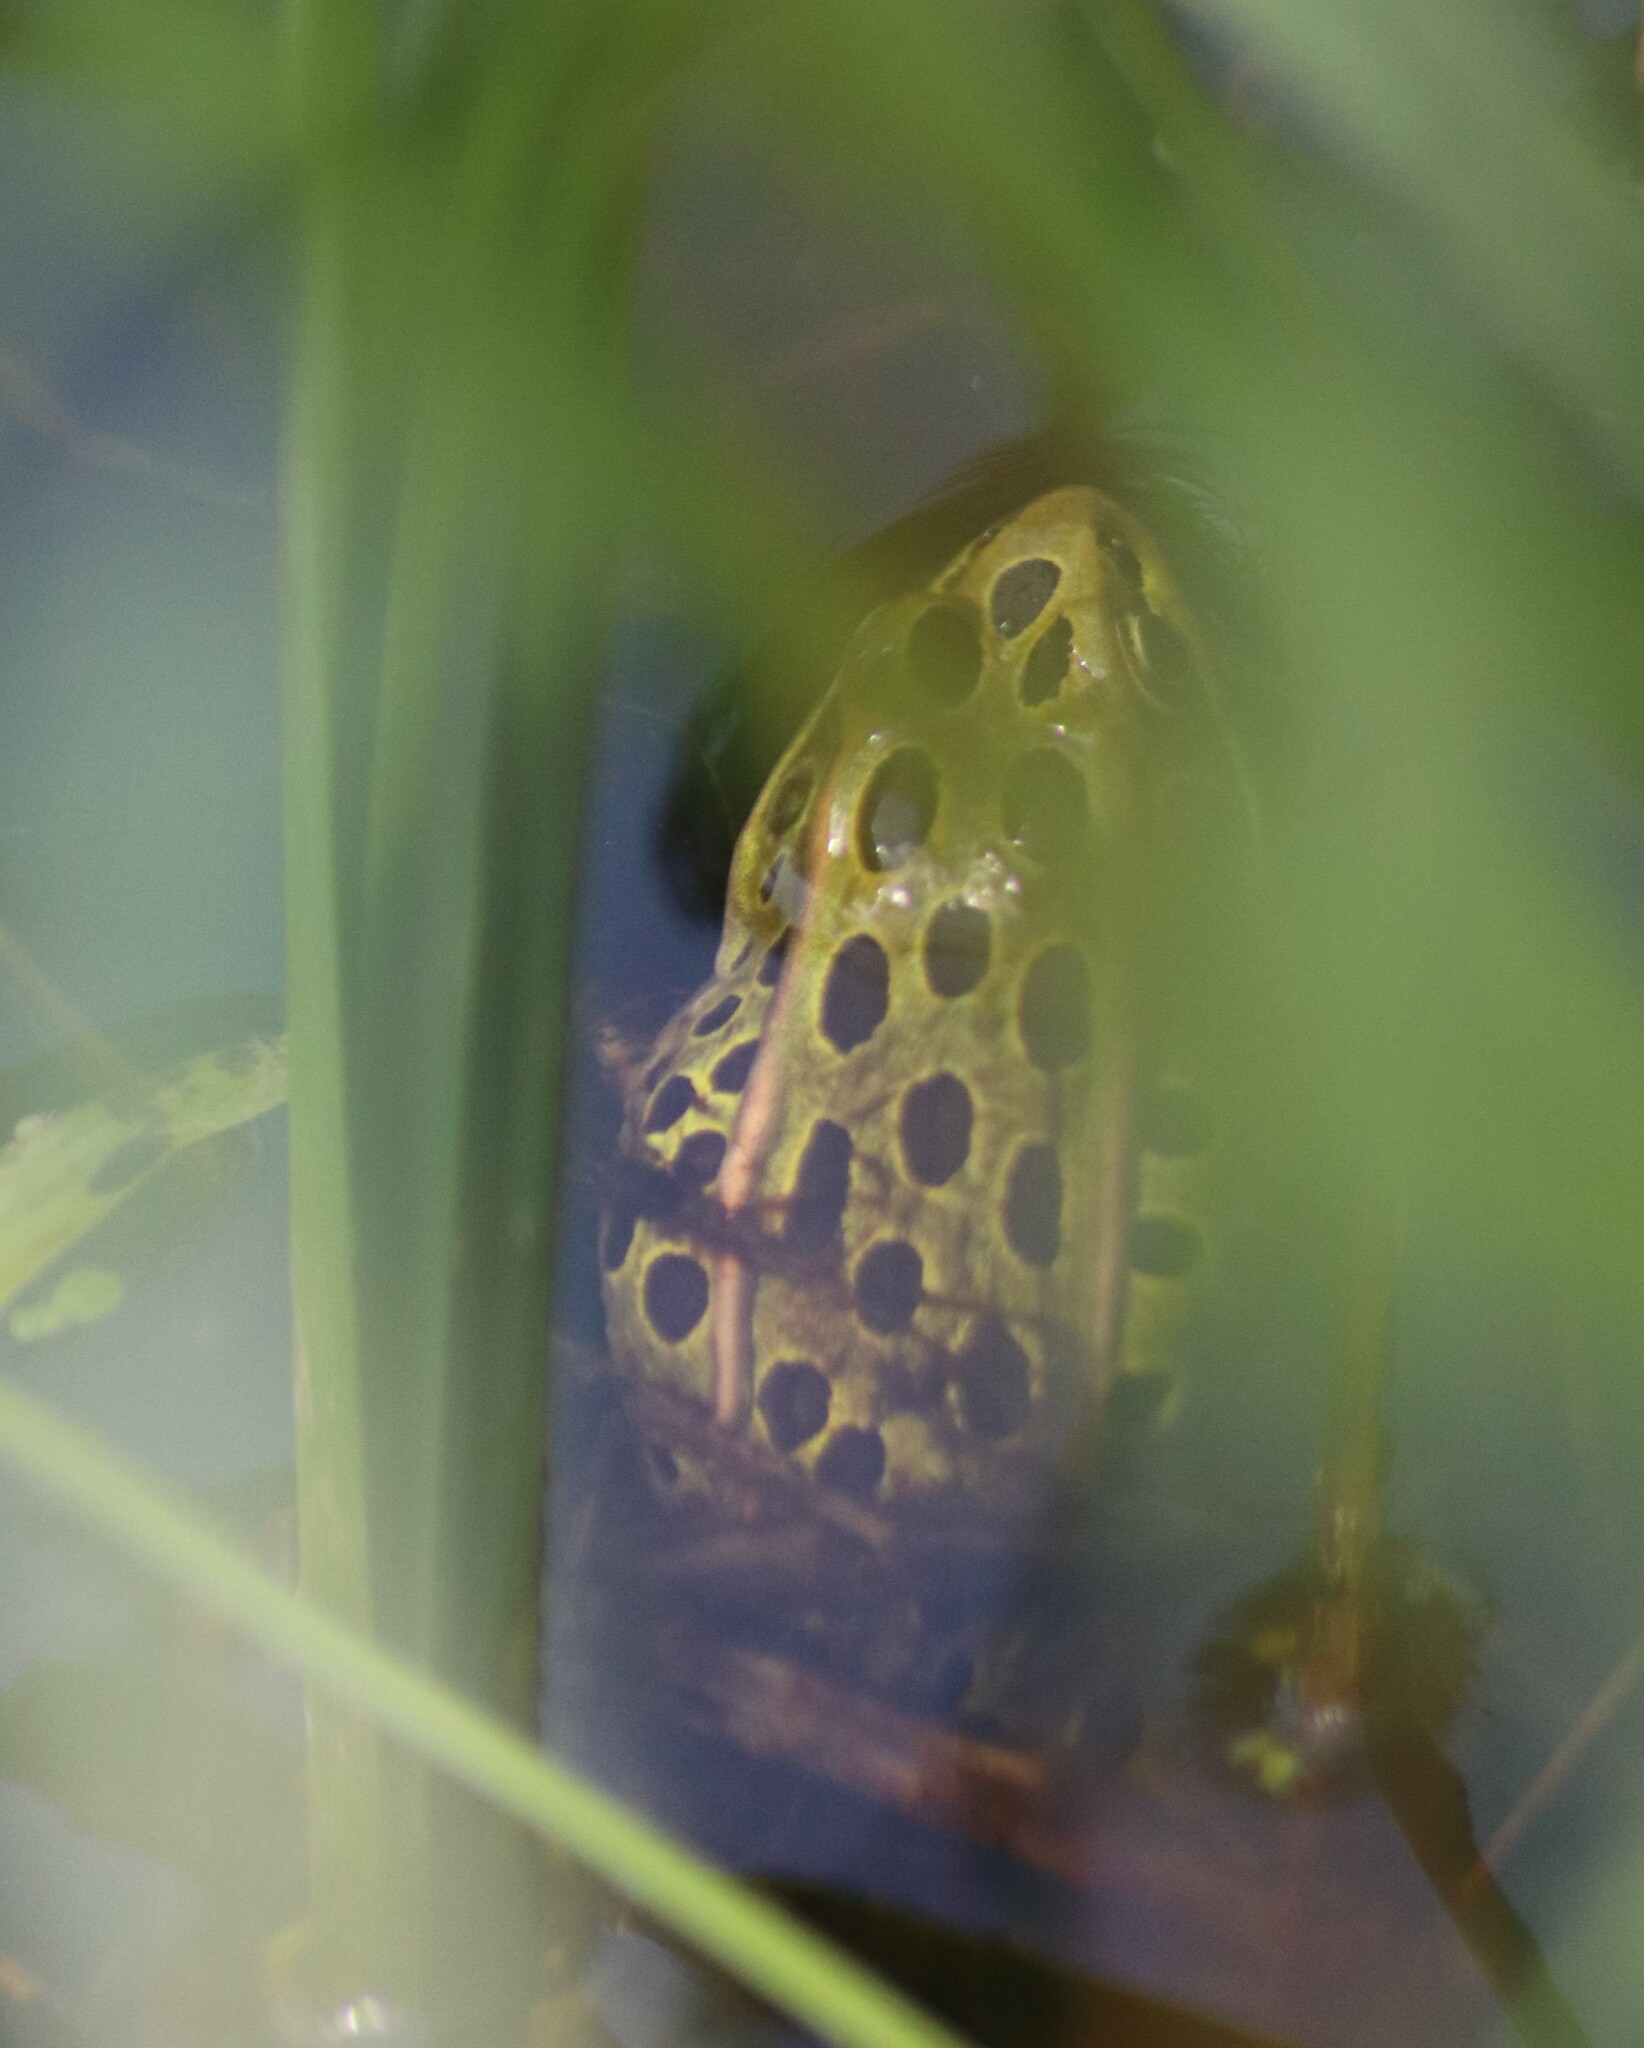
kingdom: Animalia
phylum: Chordata
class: Amphibia
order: Anura
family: Ranidae
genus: Lithobates
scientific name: Lithobates pipiens
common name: Northern leopard frog
